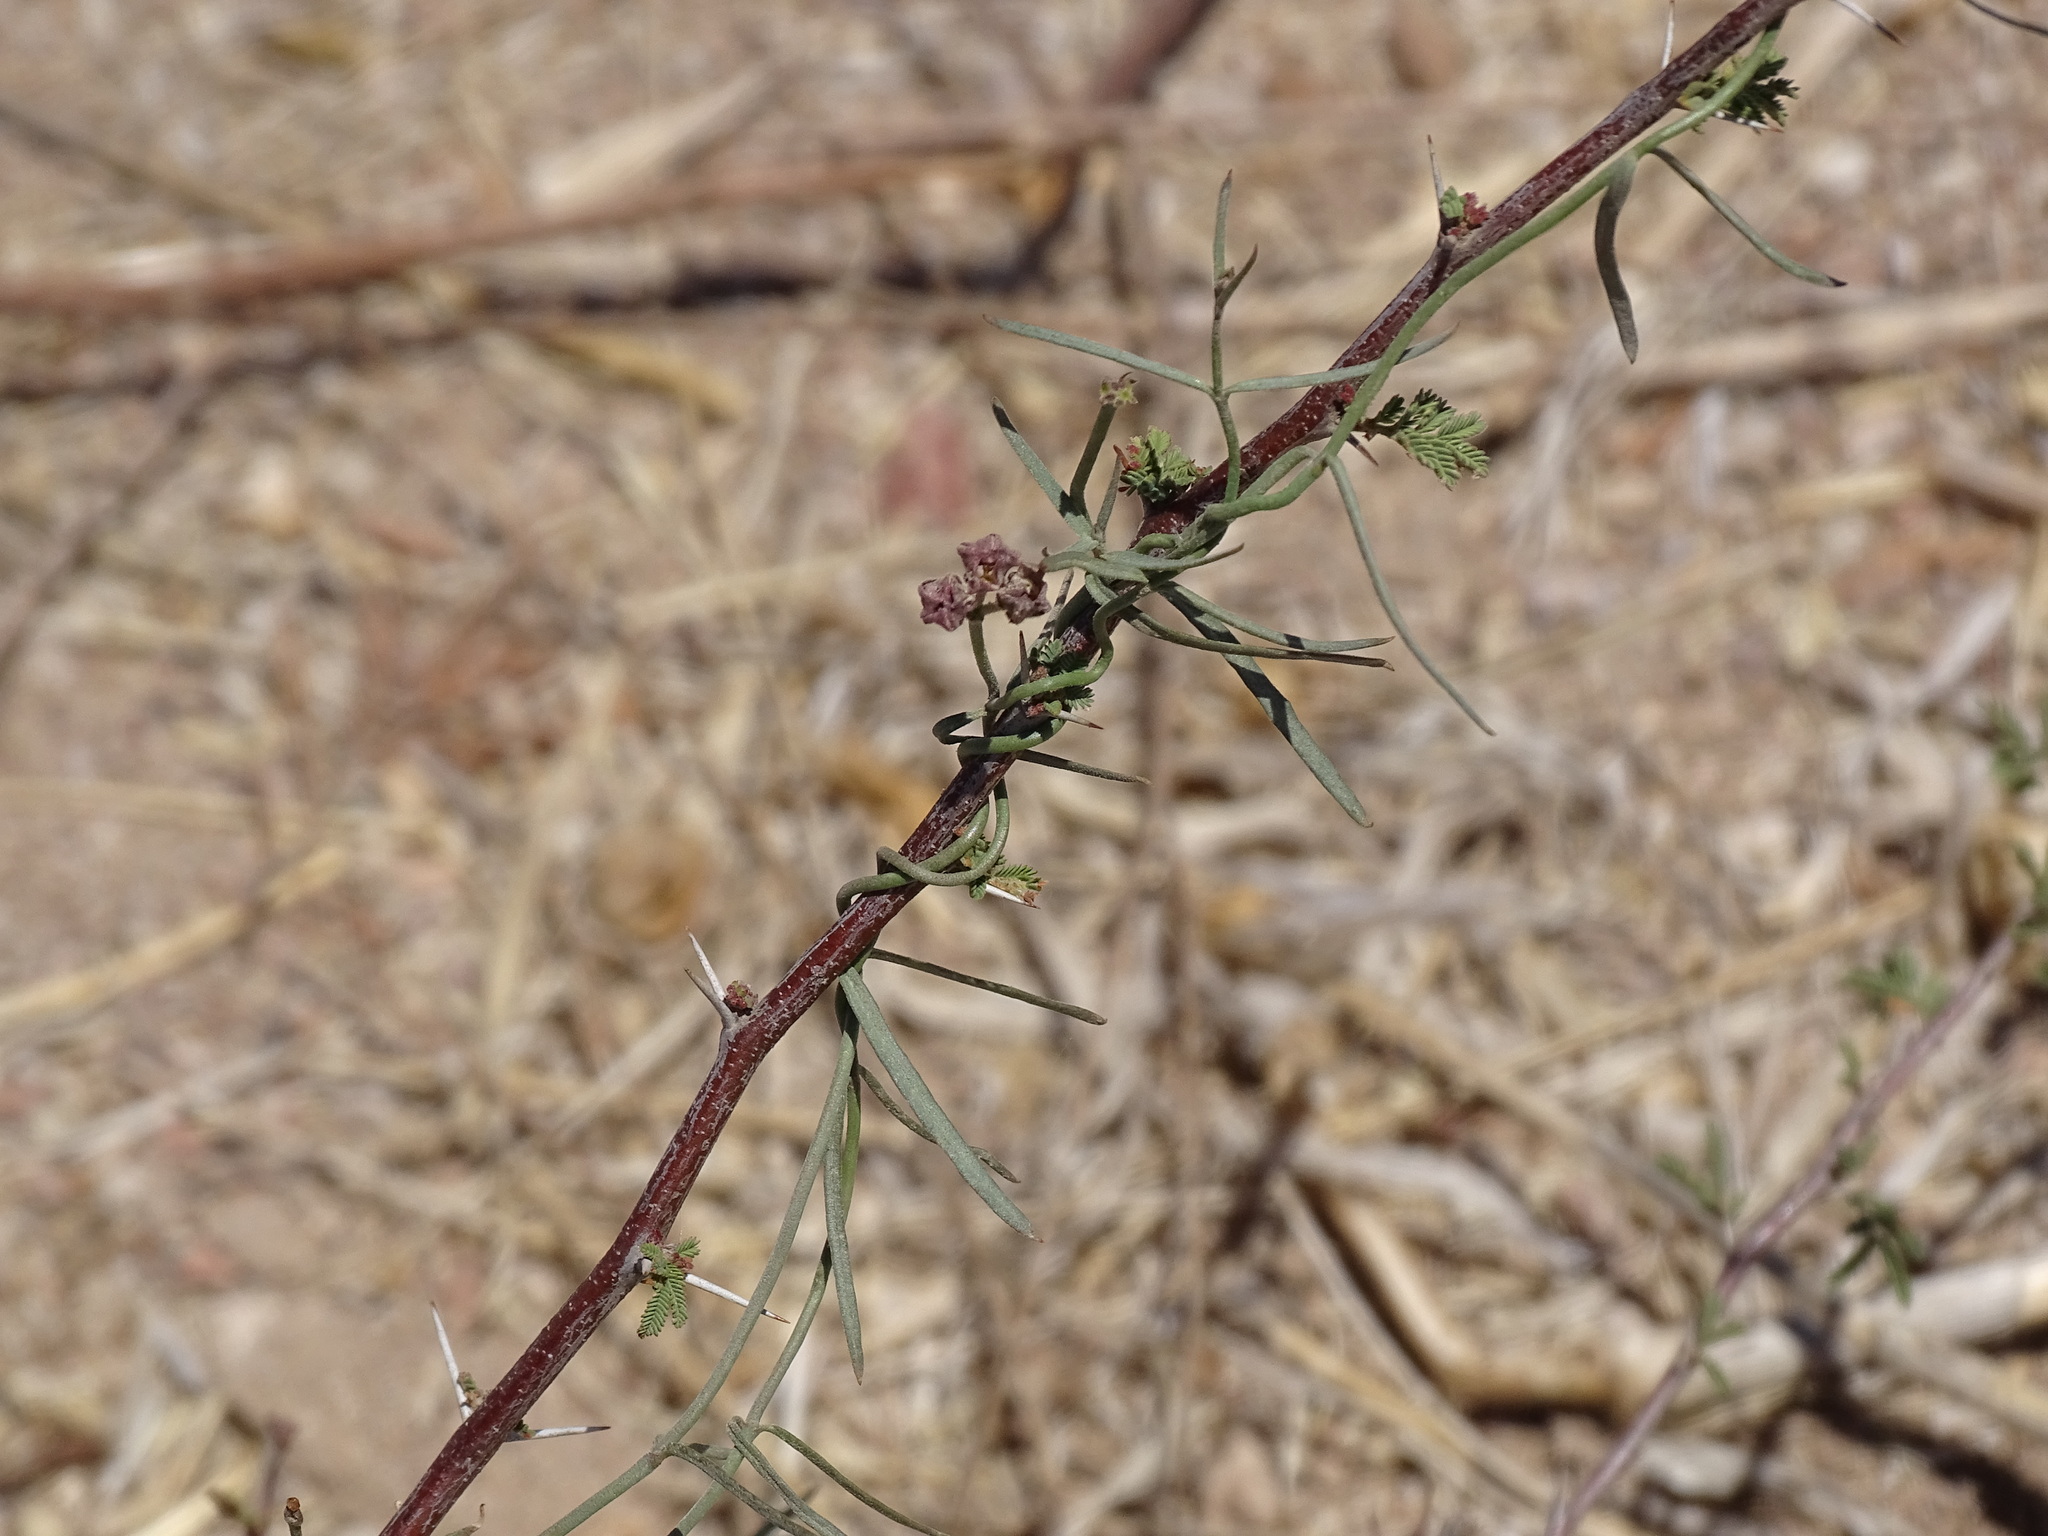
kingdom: Plantae
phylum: Tracheophyta
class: Magnoliopsida
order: Gentianales
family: Apocynaceae
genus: Funastrum
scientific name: Funastrum heterophyllum
